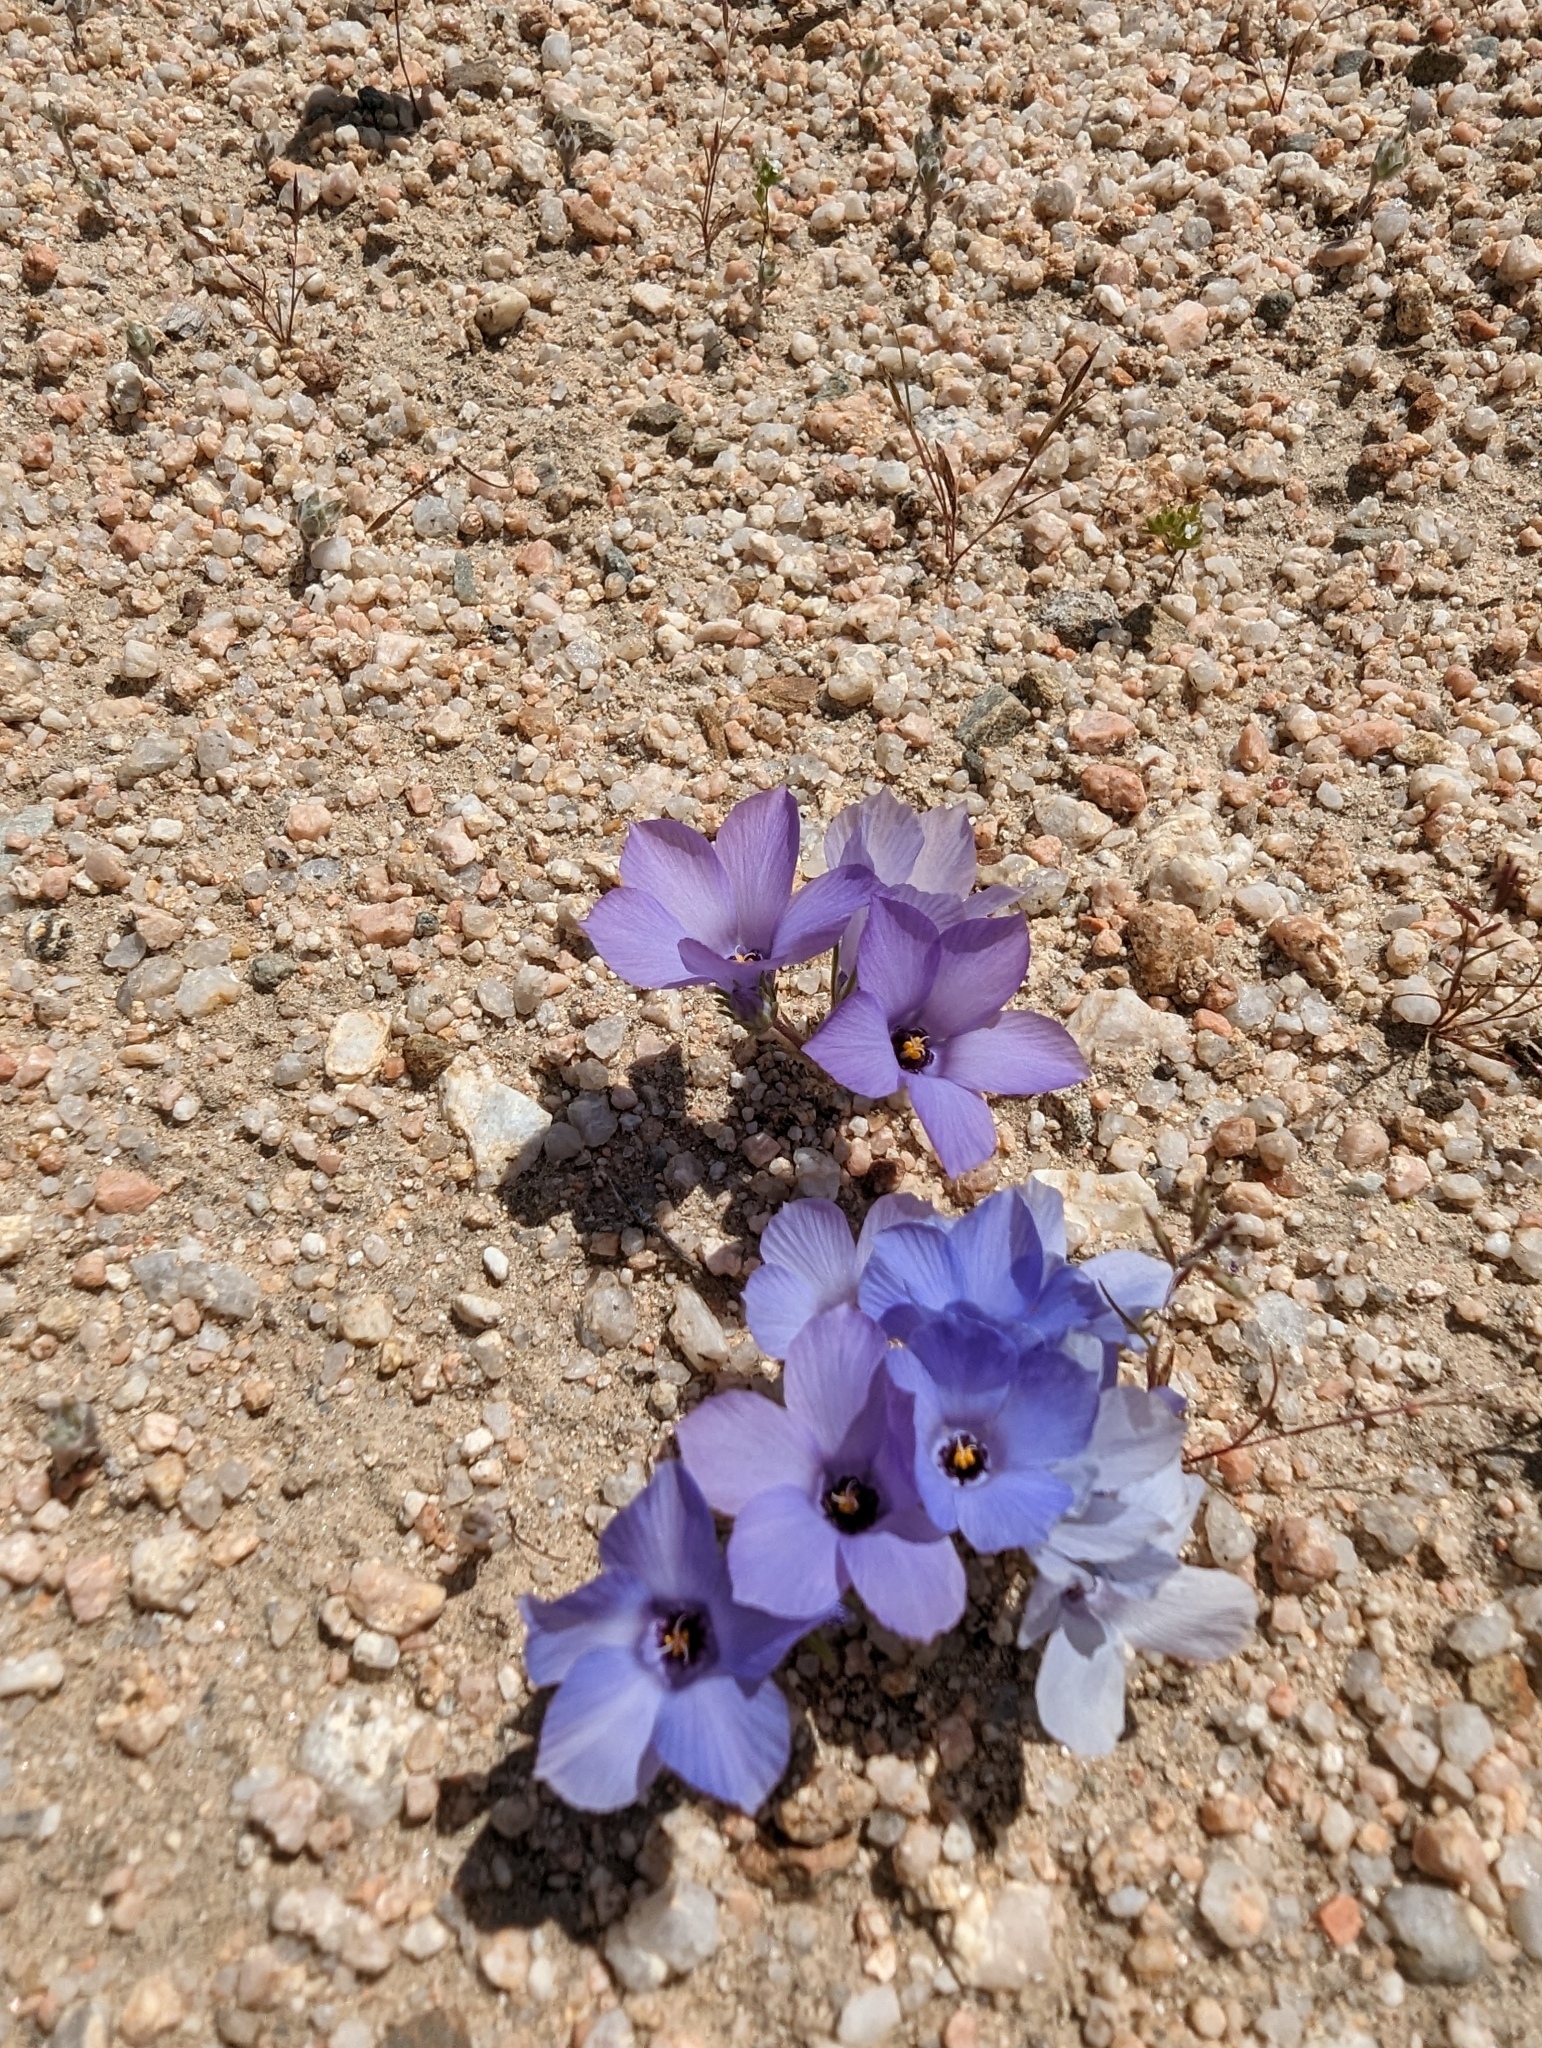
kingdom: Plantae
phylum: Tracheophyta
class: Magnoliopsida
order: Ericales
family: Polemoniaceae
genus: Linanthus
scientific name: Linanthus parryae
